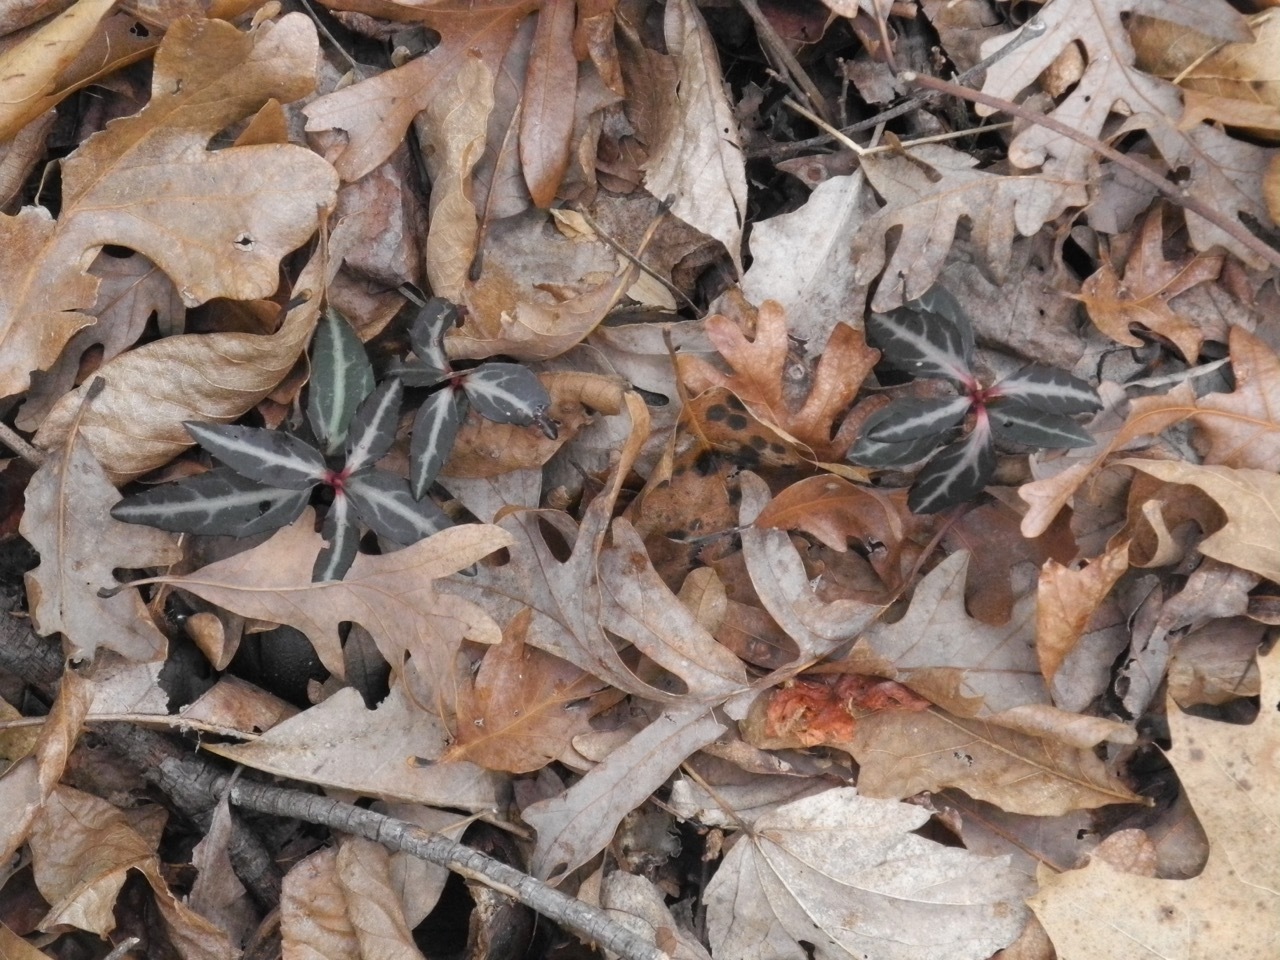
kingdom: Plantae
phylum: Tracheophyta
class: Magnoliopsida
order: Ericales
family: Ericaceae
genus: Chimaphila
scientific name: Chimaphila maculata
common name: Spotted pipsissewa
